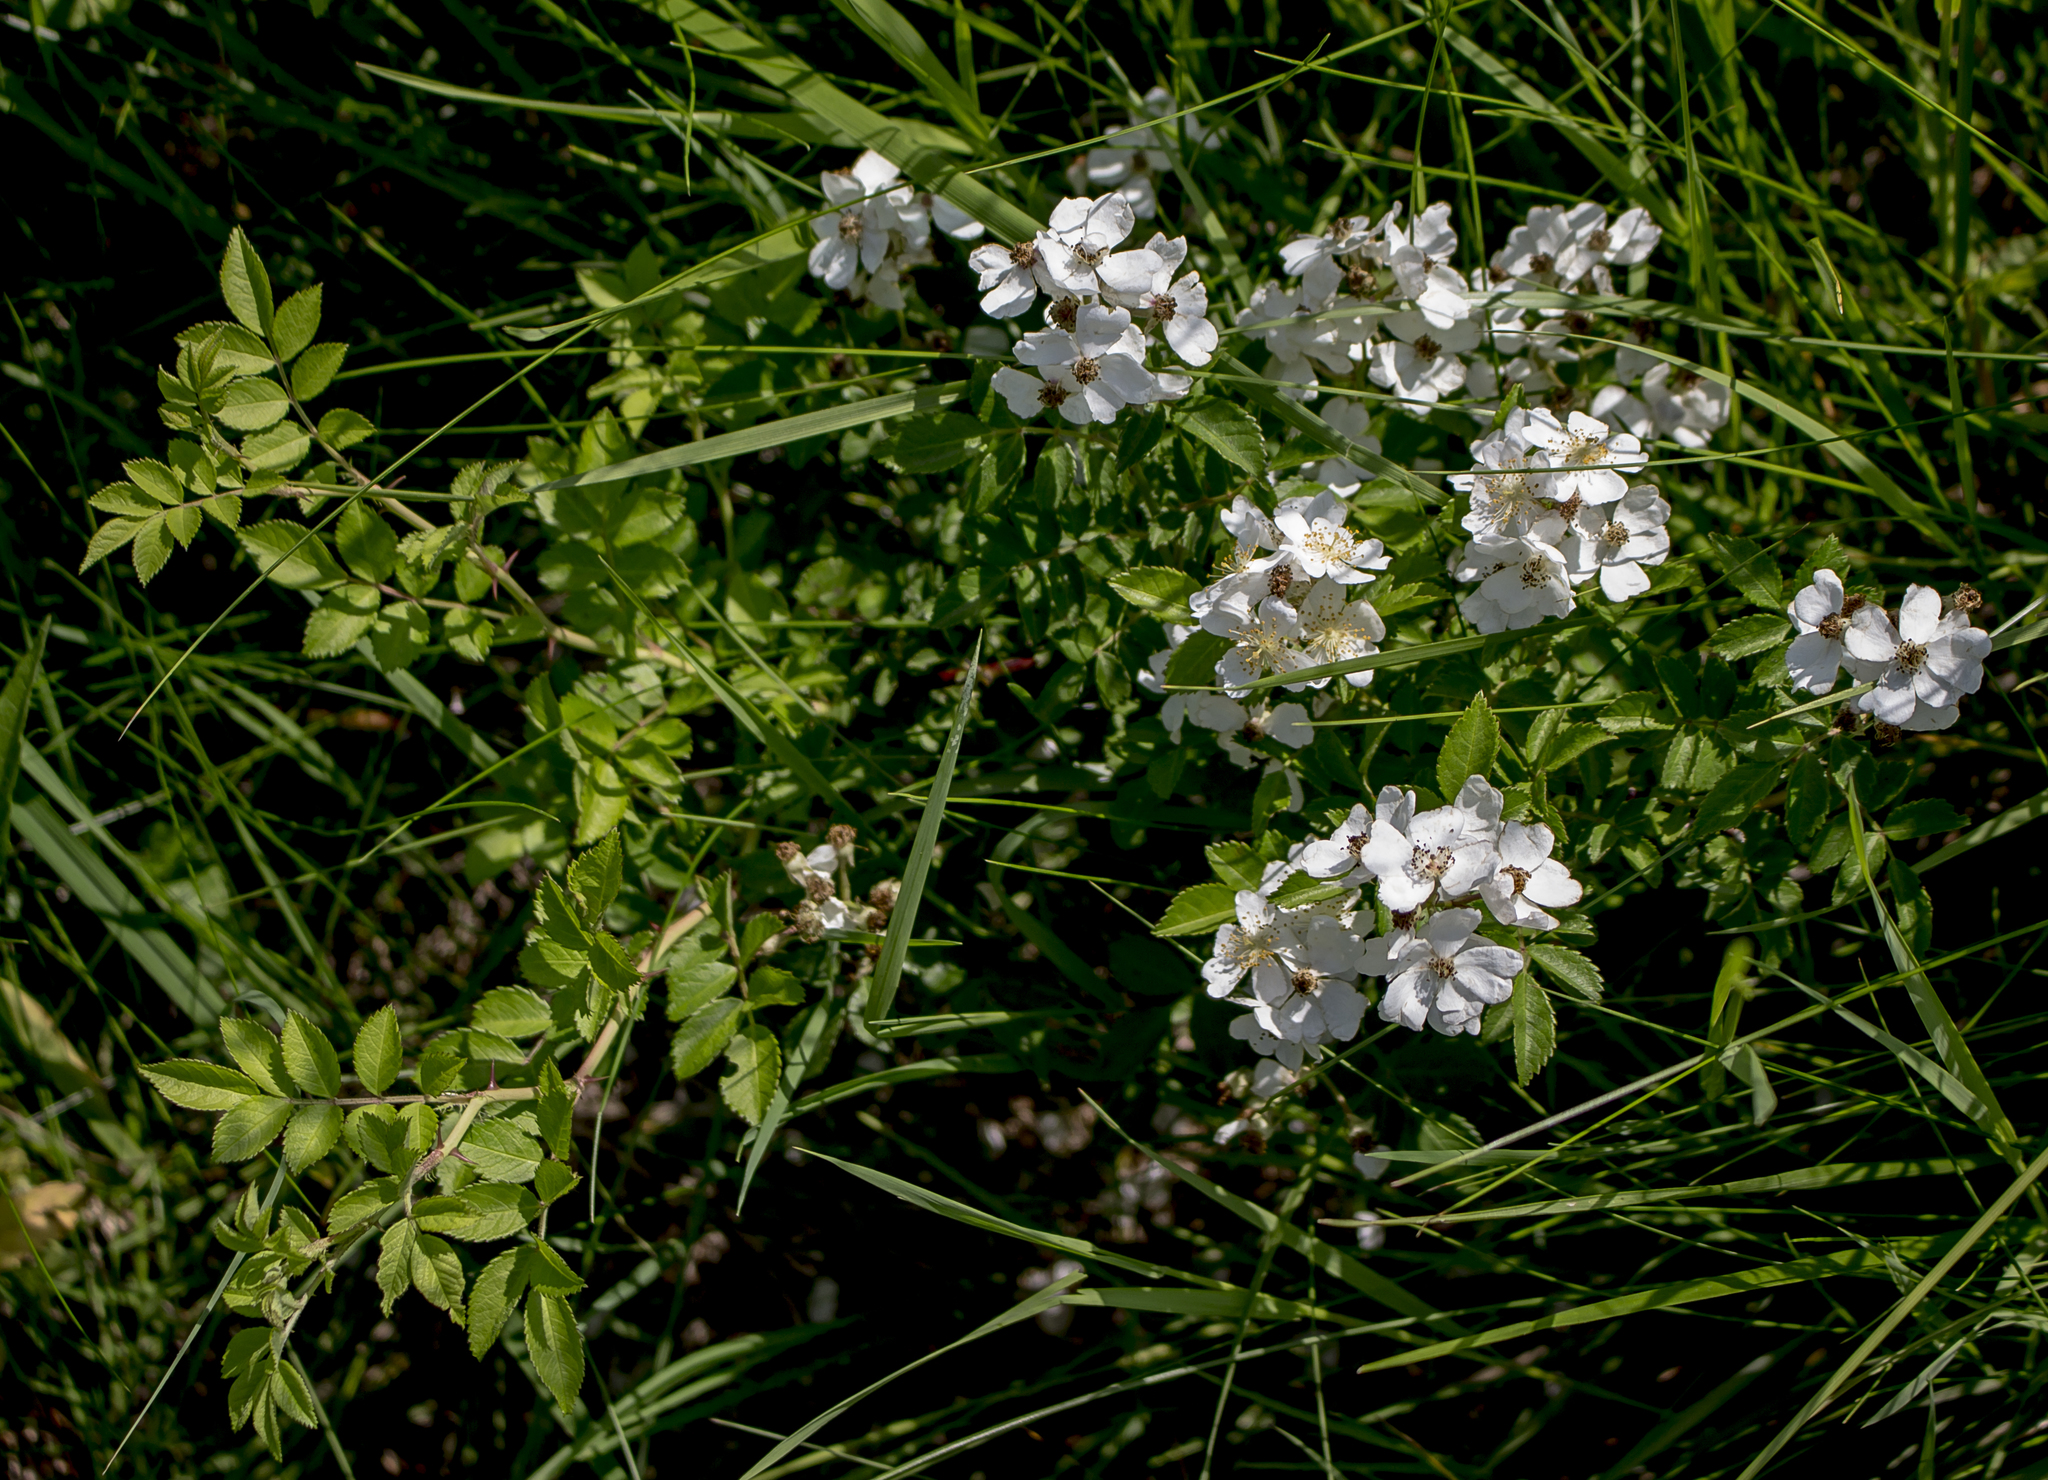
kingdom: Plantae
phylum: Tracheophyta
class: Magnoliopsida
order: Rosales
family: Rosaceae
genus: Rosa
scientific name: Rosa multiflora
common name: Multiflora rose
